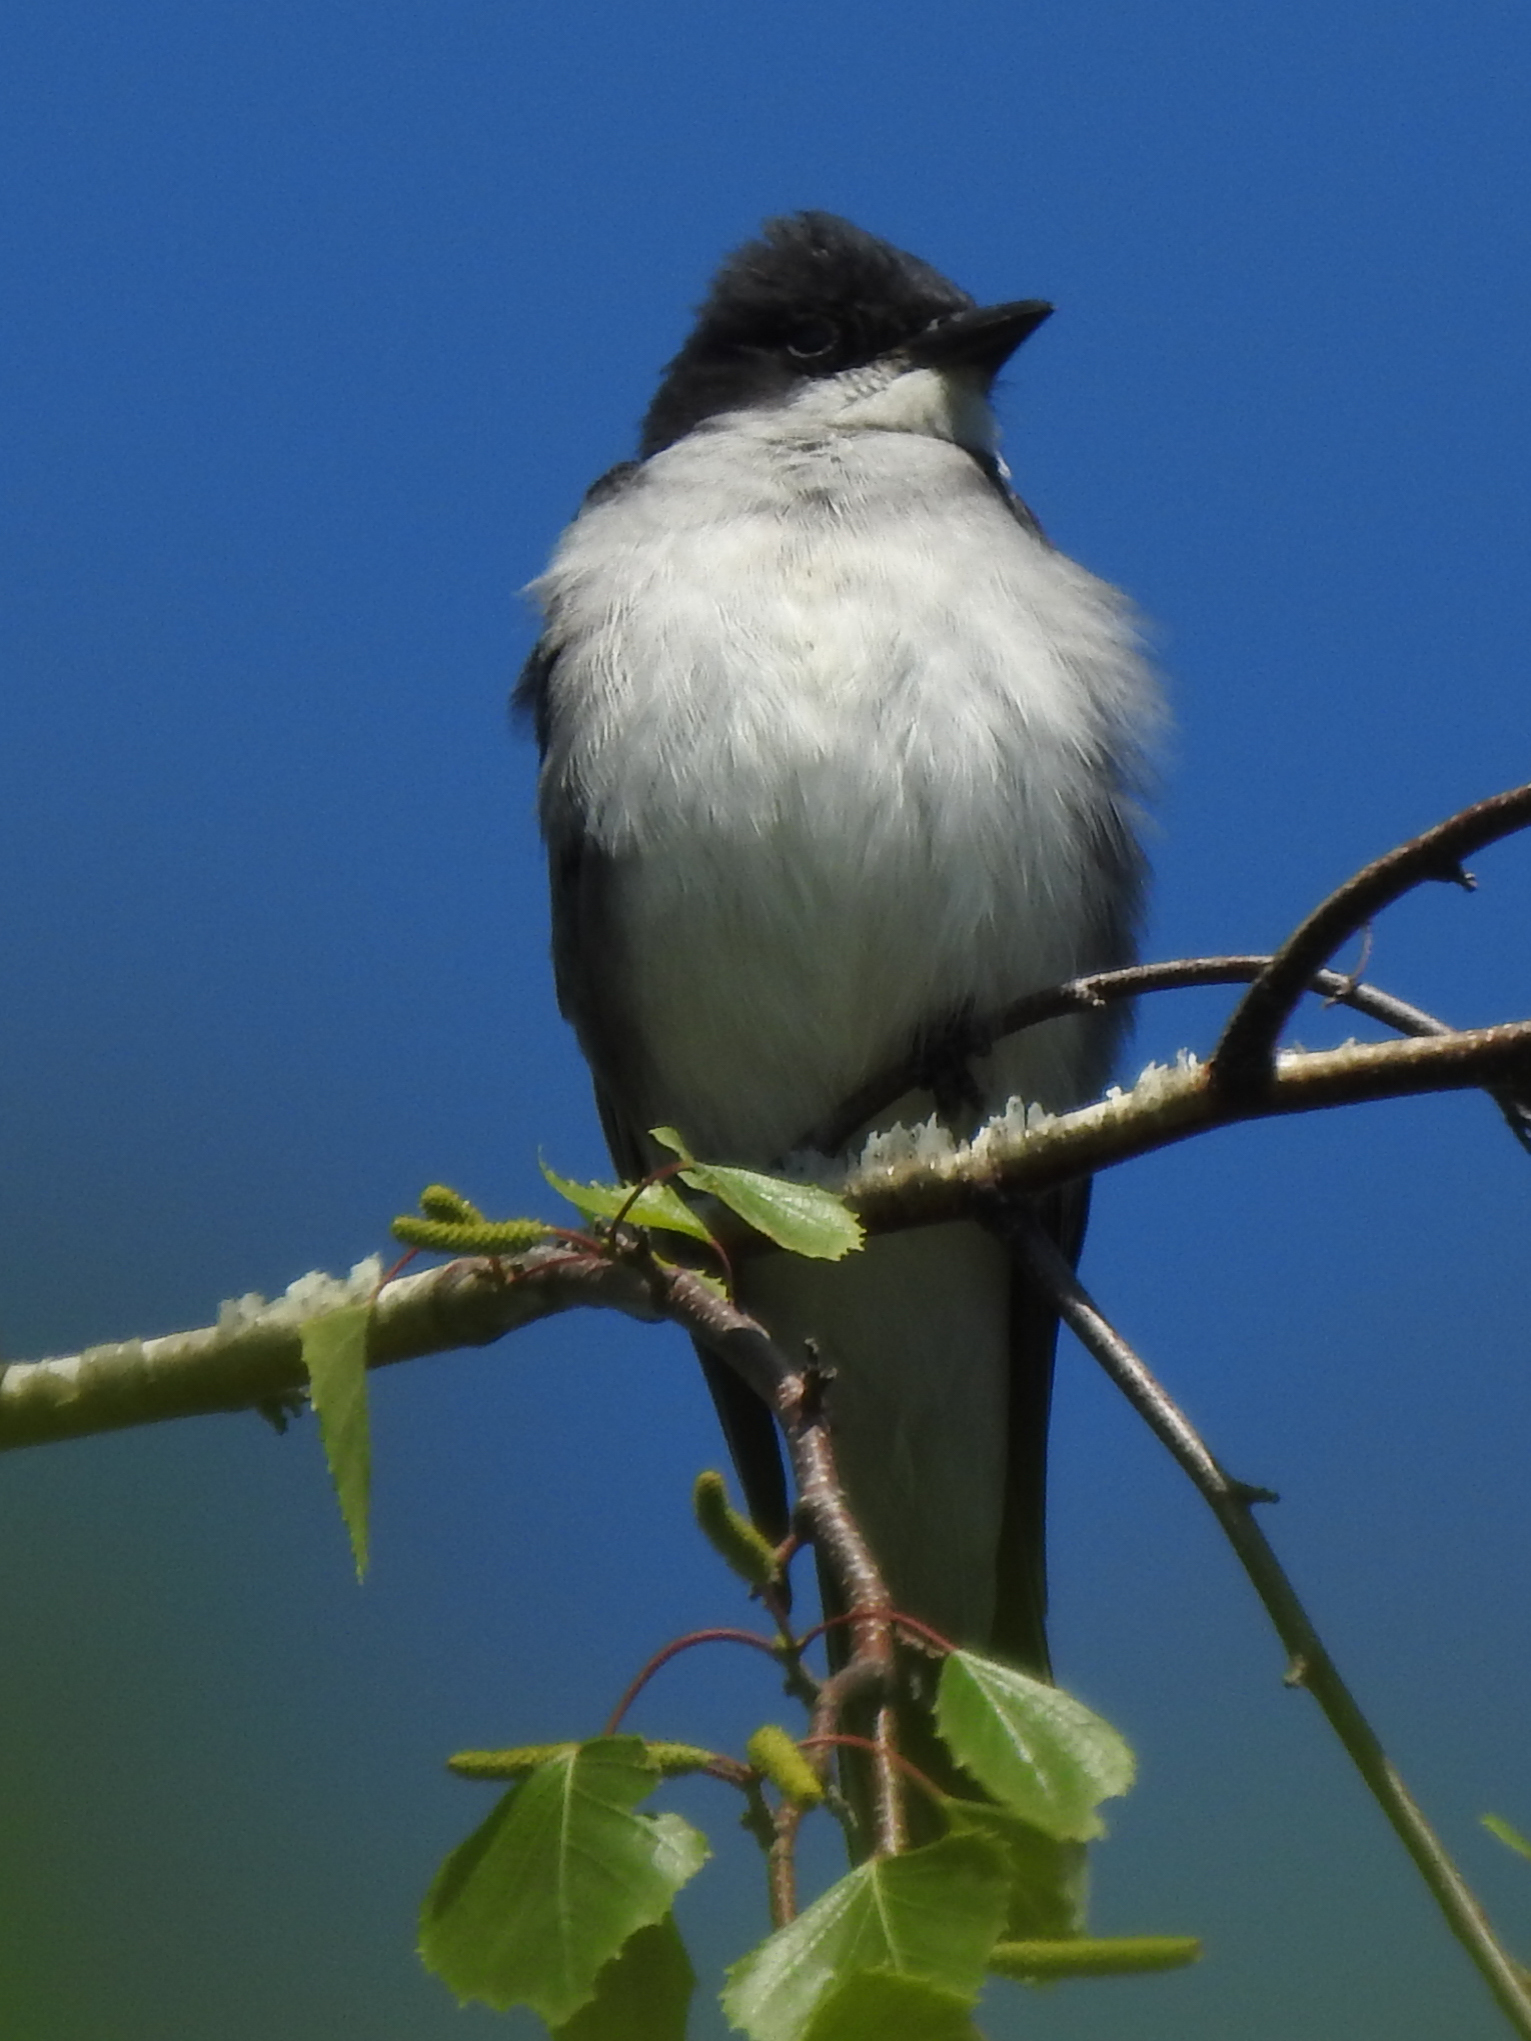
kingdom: Animalia
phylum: Chordata
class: Aves
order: Passeriformes
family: Tyrannidae
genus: Tyrannus
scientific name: Tyrannus tyrannus
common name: Eastern kingbird
